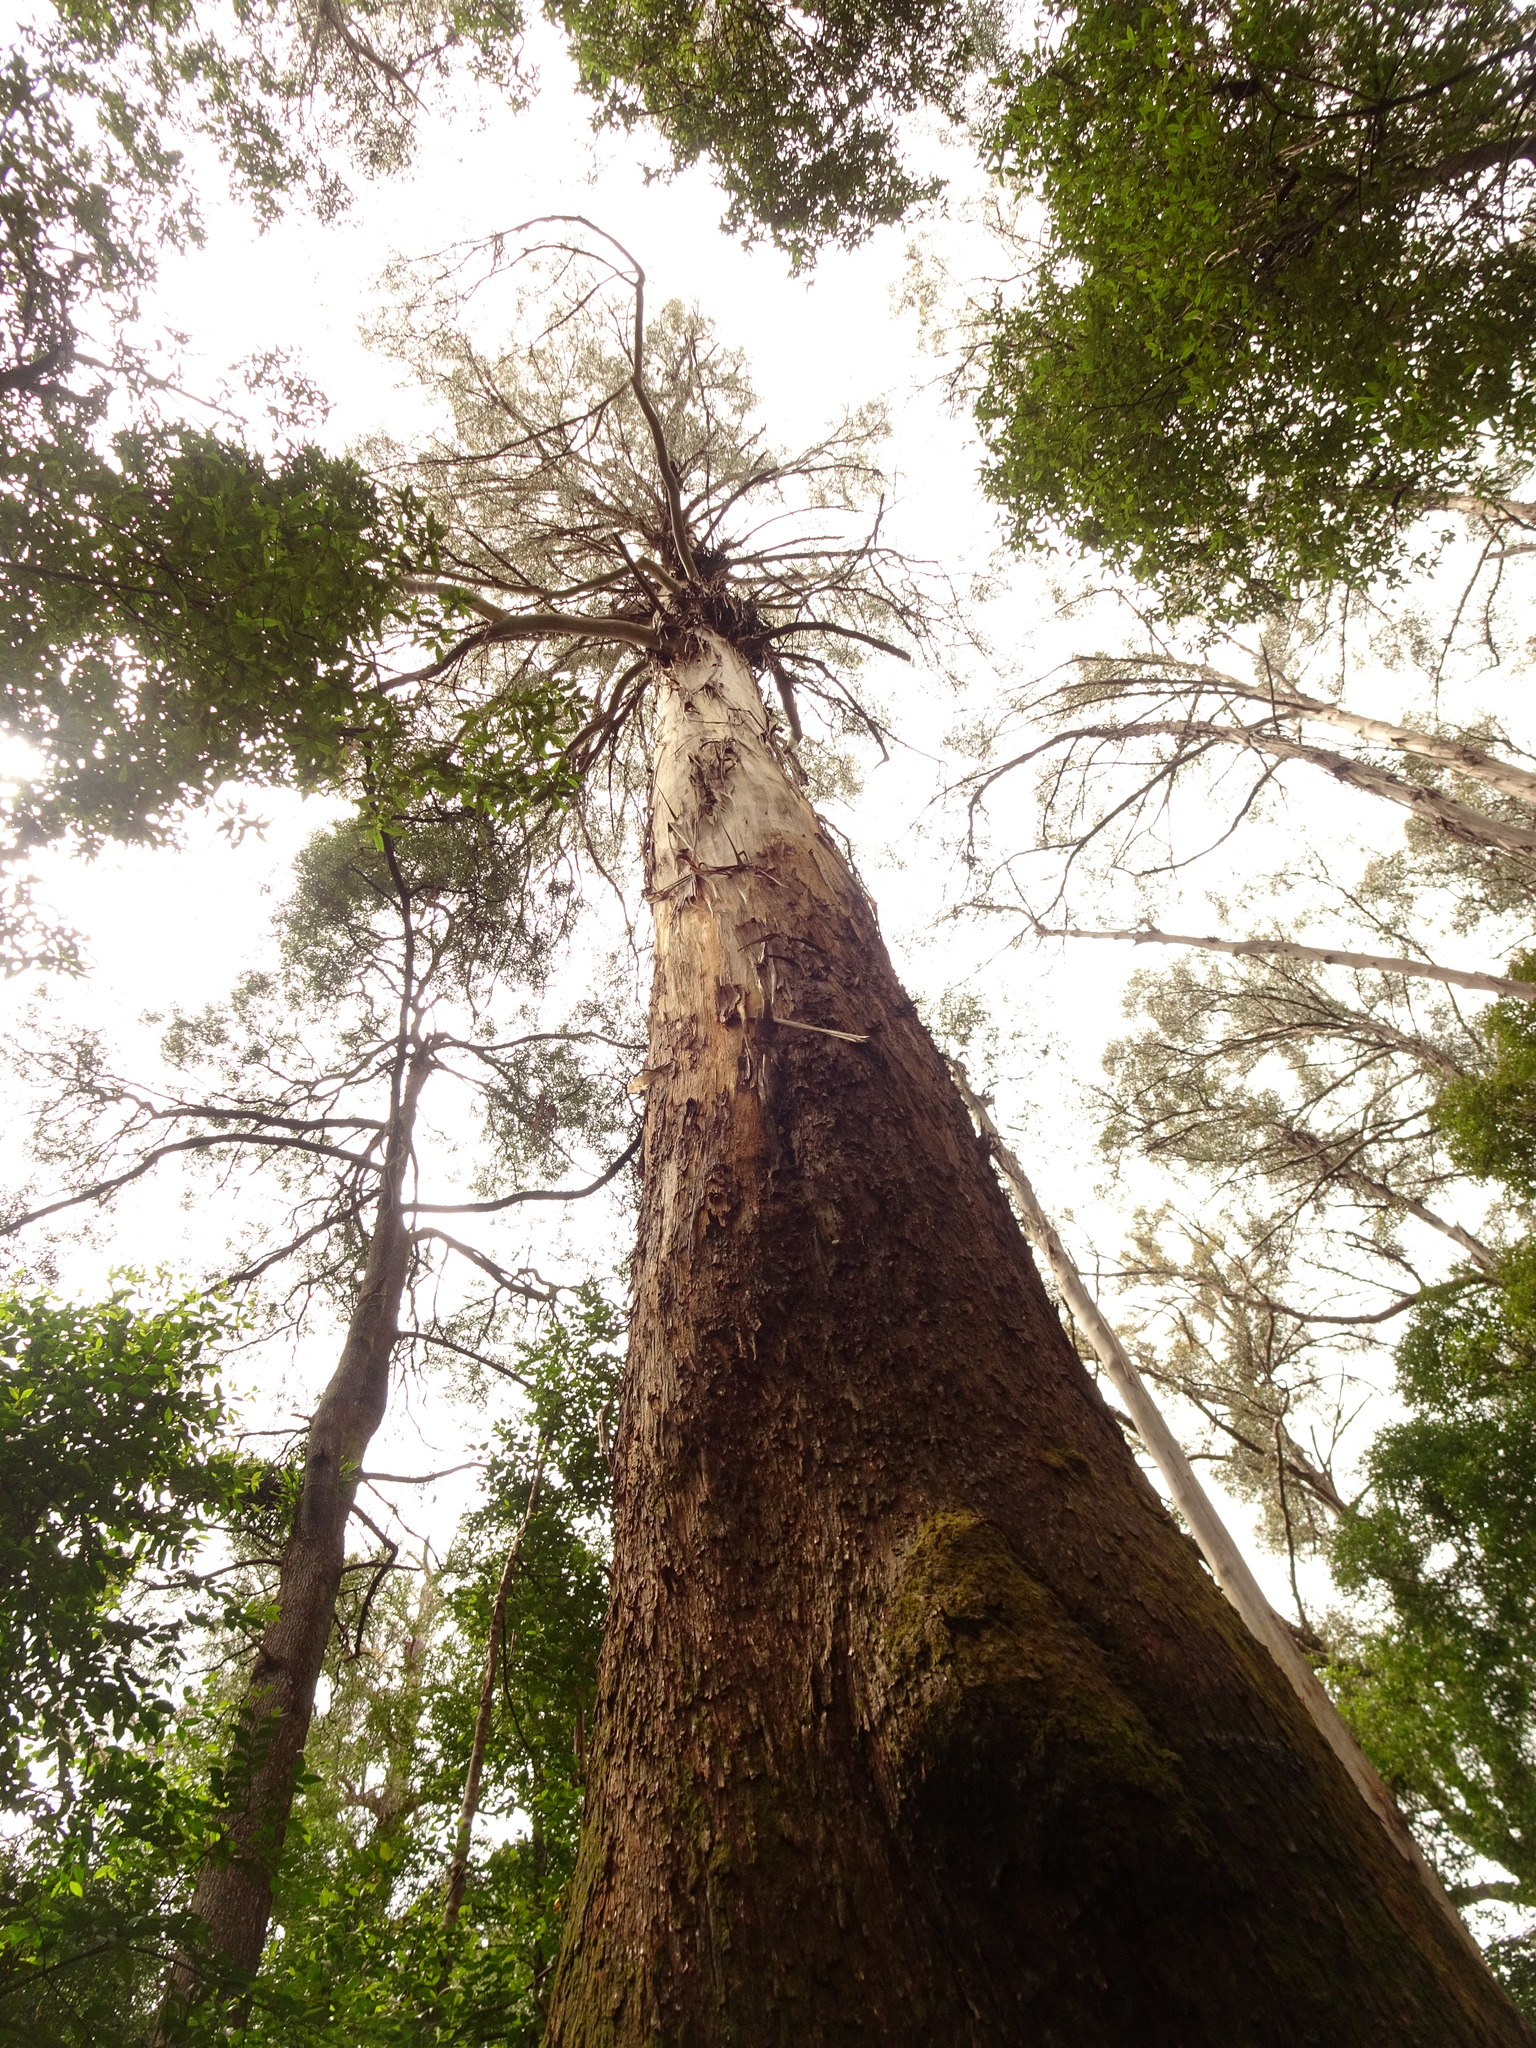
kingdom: Plantae
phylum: Tracheophyta
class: Magnoliopsida
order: Myrtales
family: Myrtaceae
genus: Eucalyptus
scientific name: Eucalyptus regnans
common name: Stringy gum
